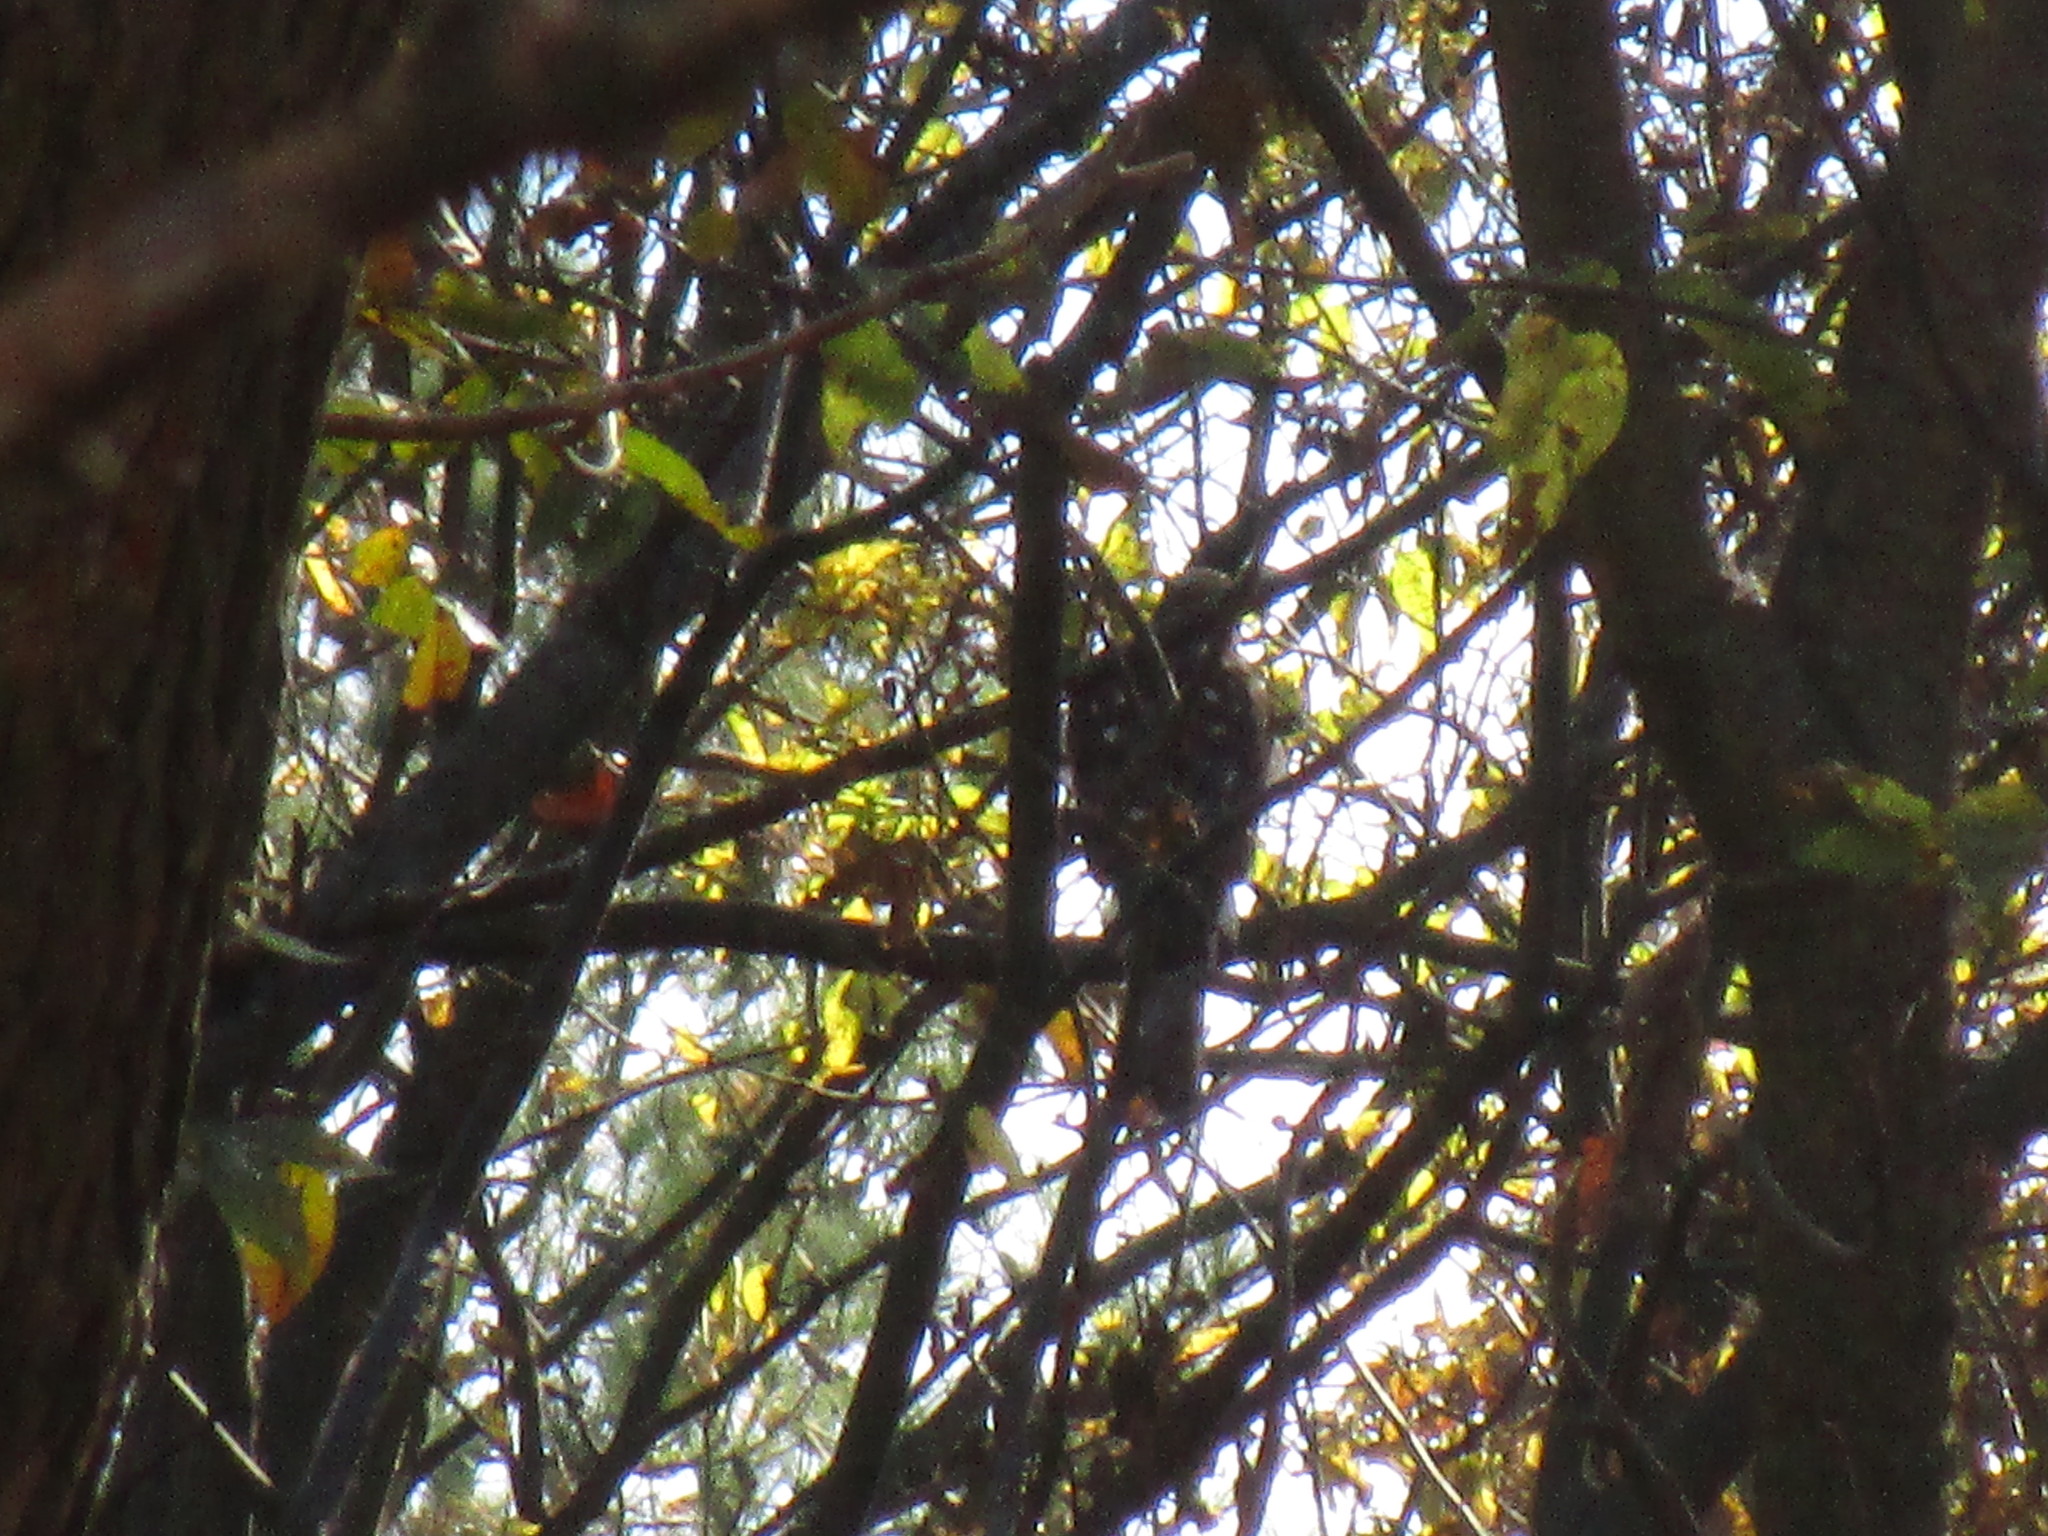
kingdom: Animalia
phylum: Chordata
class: Aves
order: Accipitriformes
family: Accipitridae
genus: Accipiter
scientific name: Accipiter cooperii
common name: Cooper's hawk
